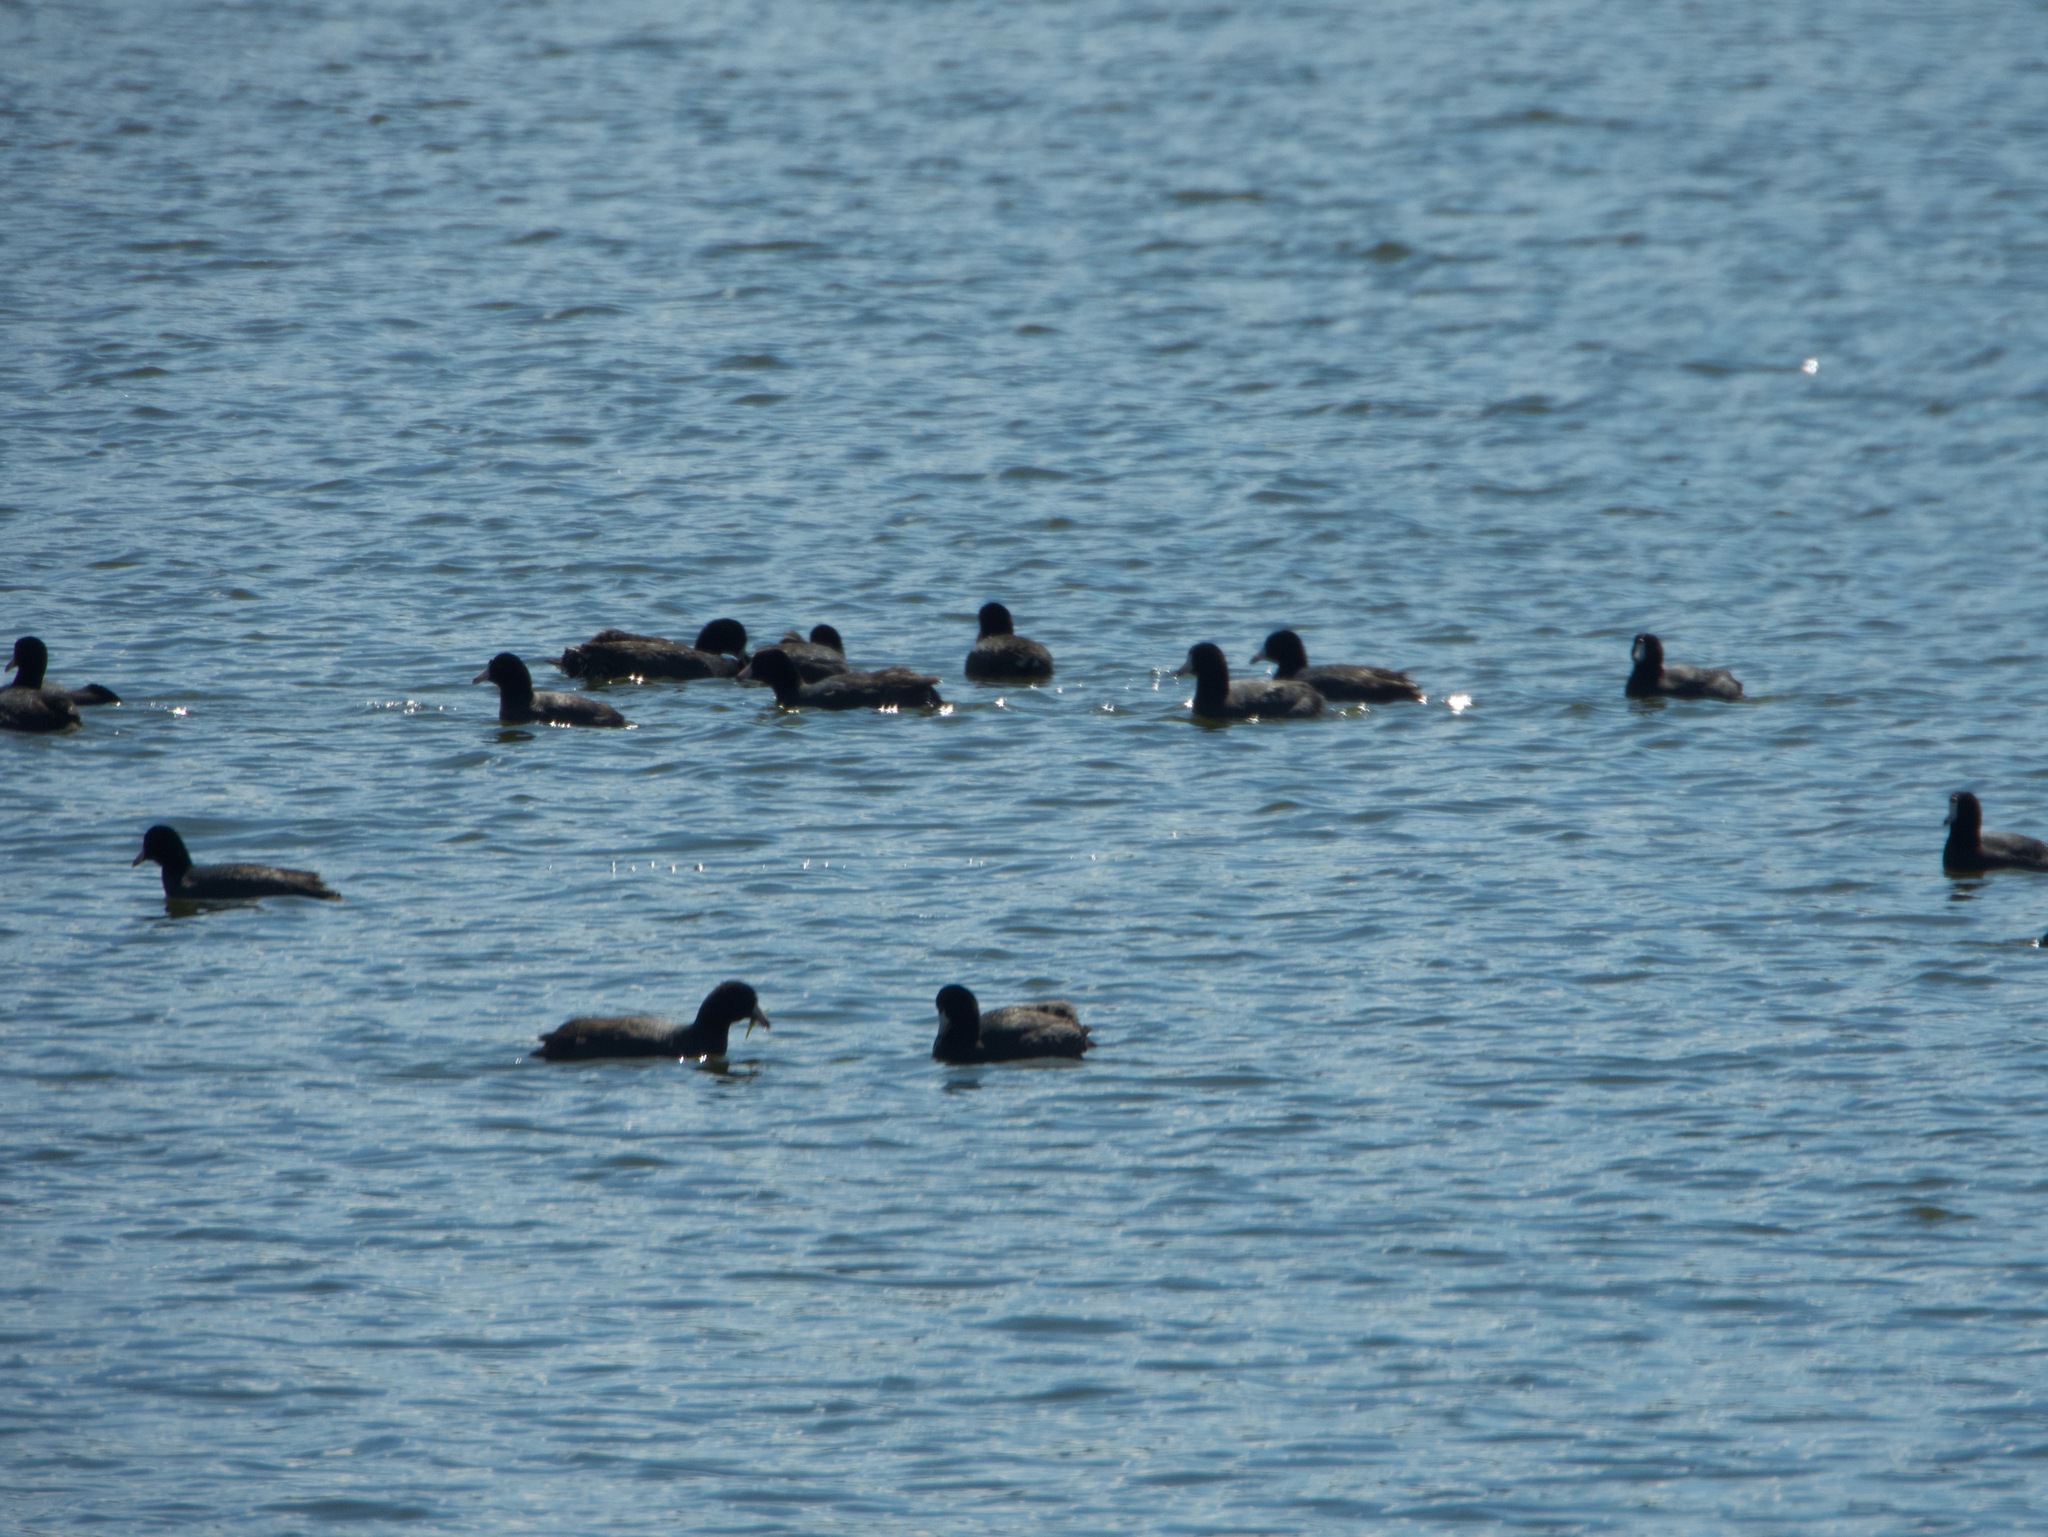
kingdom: Animalia
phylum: Chordata
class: Aves
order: Gruiformes
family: Rallidae
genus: Fulica
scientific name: Fulica americana
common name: American coot
